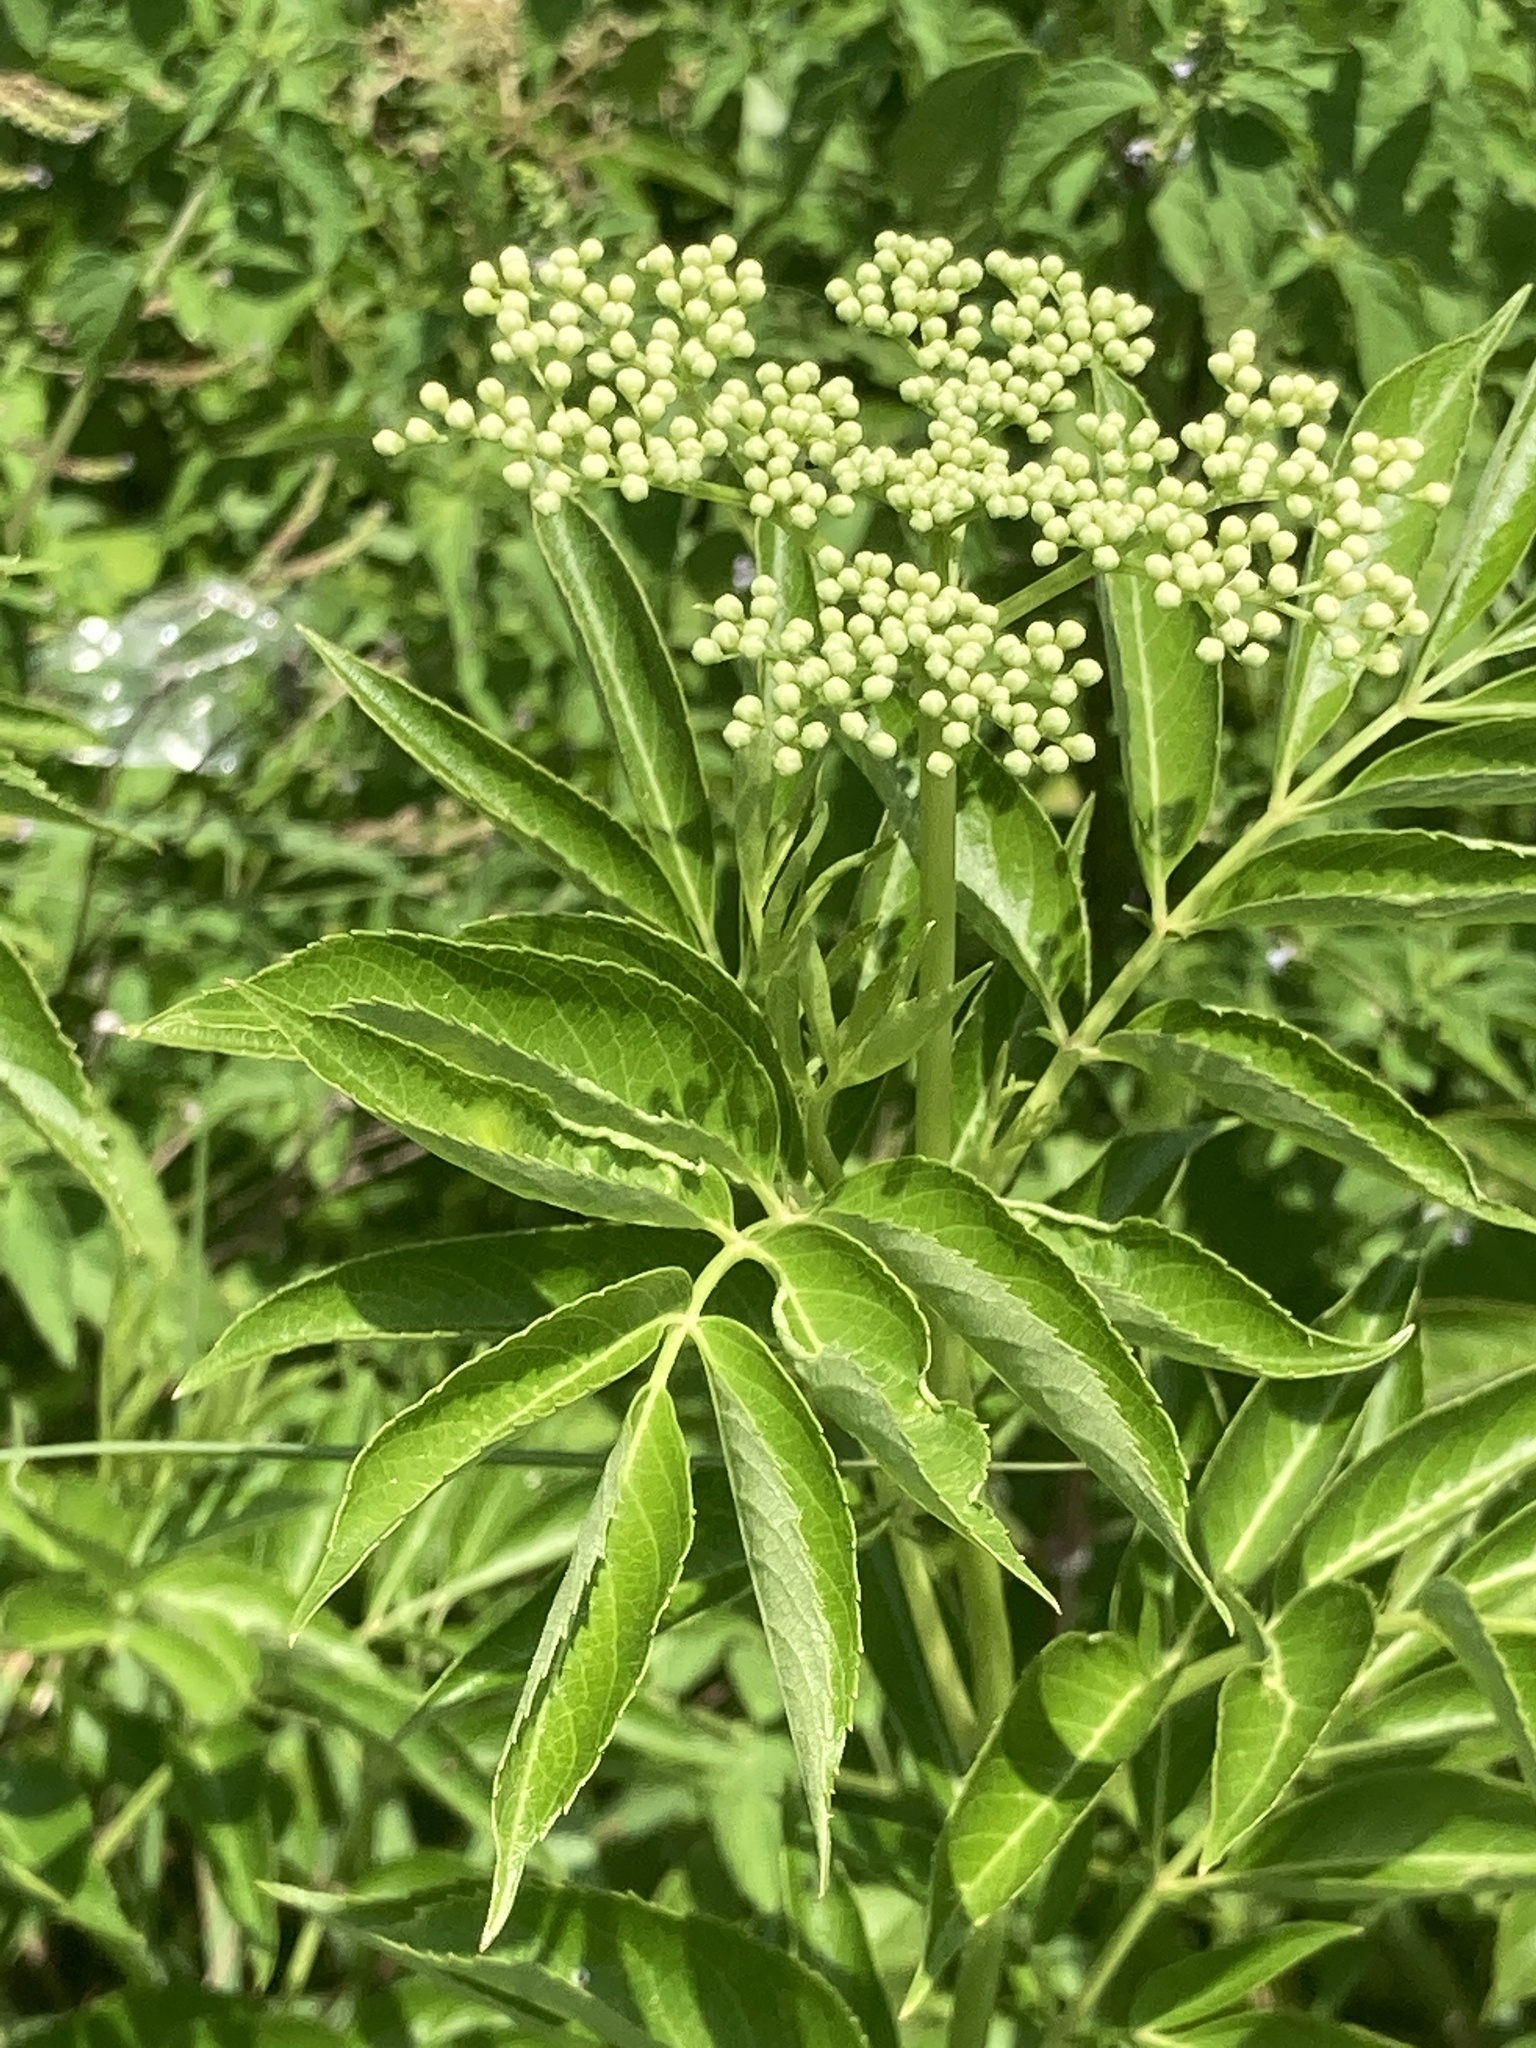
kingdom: Plantae
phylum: Tracheophyta
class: Magnoliopsida
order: Dipsacales
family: Viburnaceae
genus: Sambucus
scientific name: Sambucus canadensis
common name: American elder
